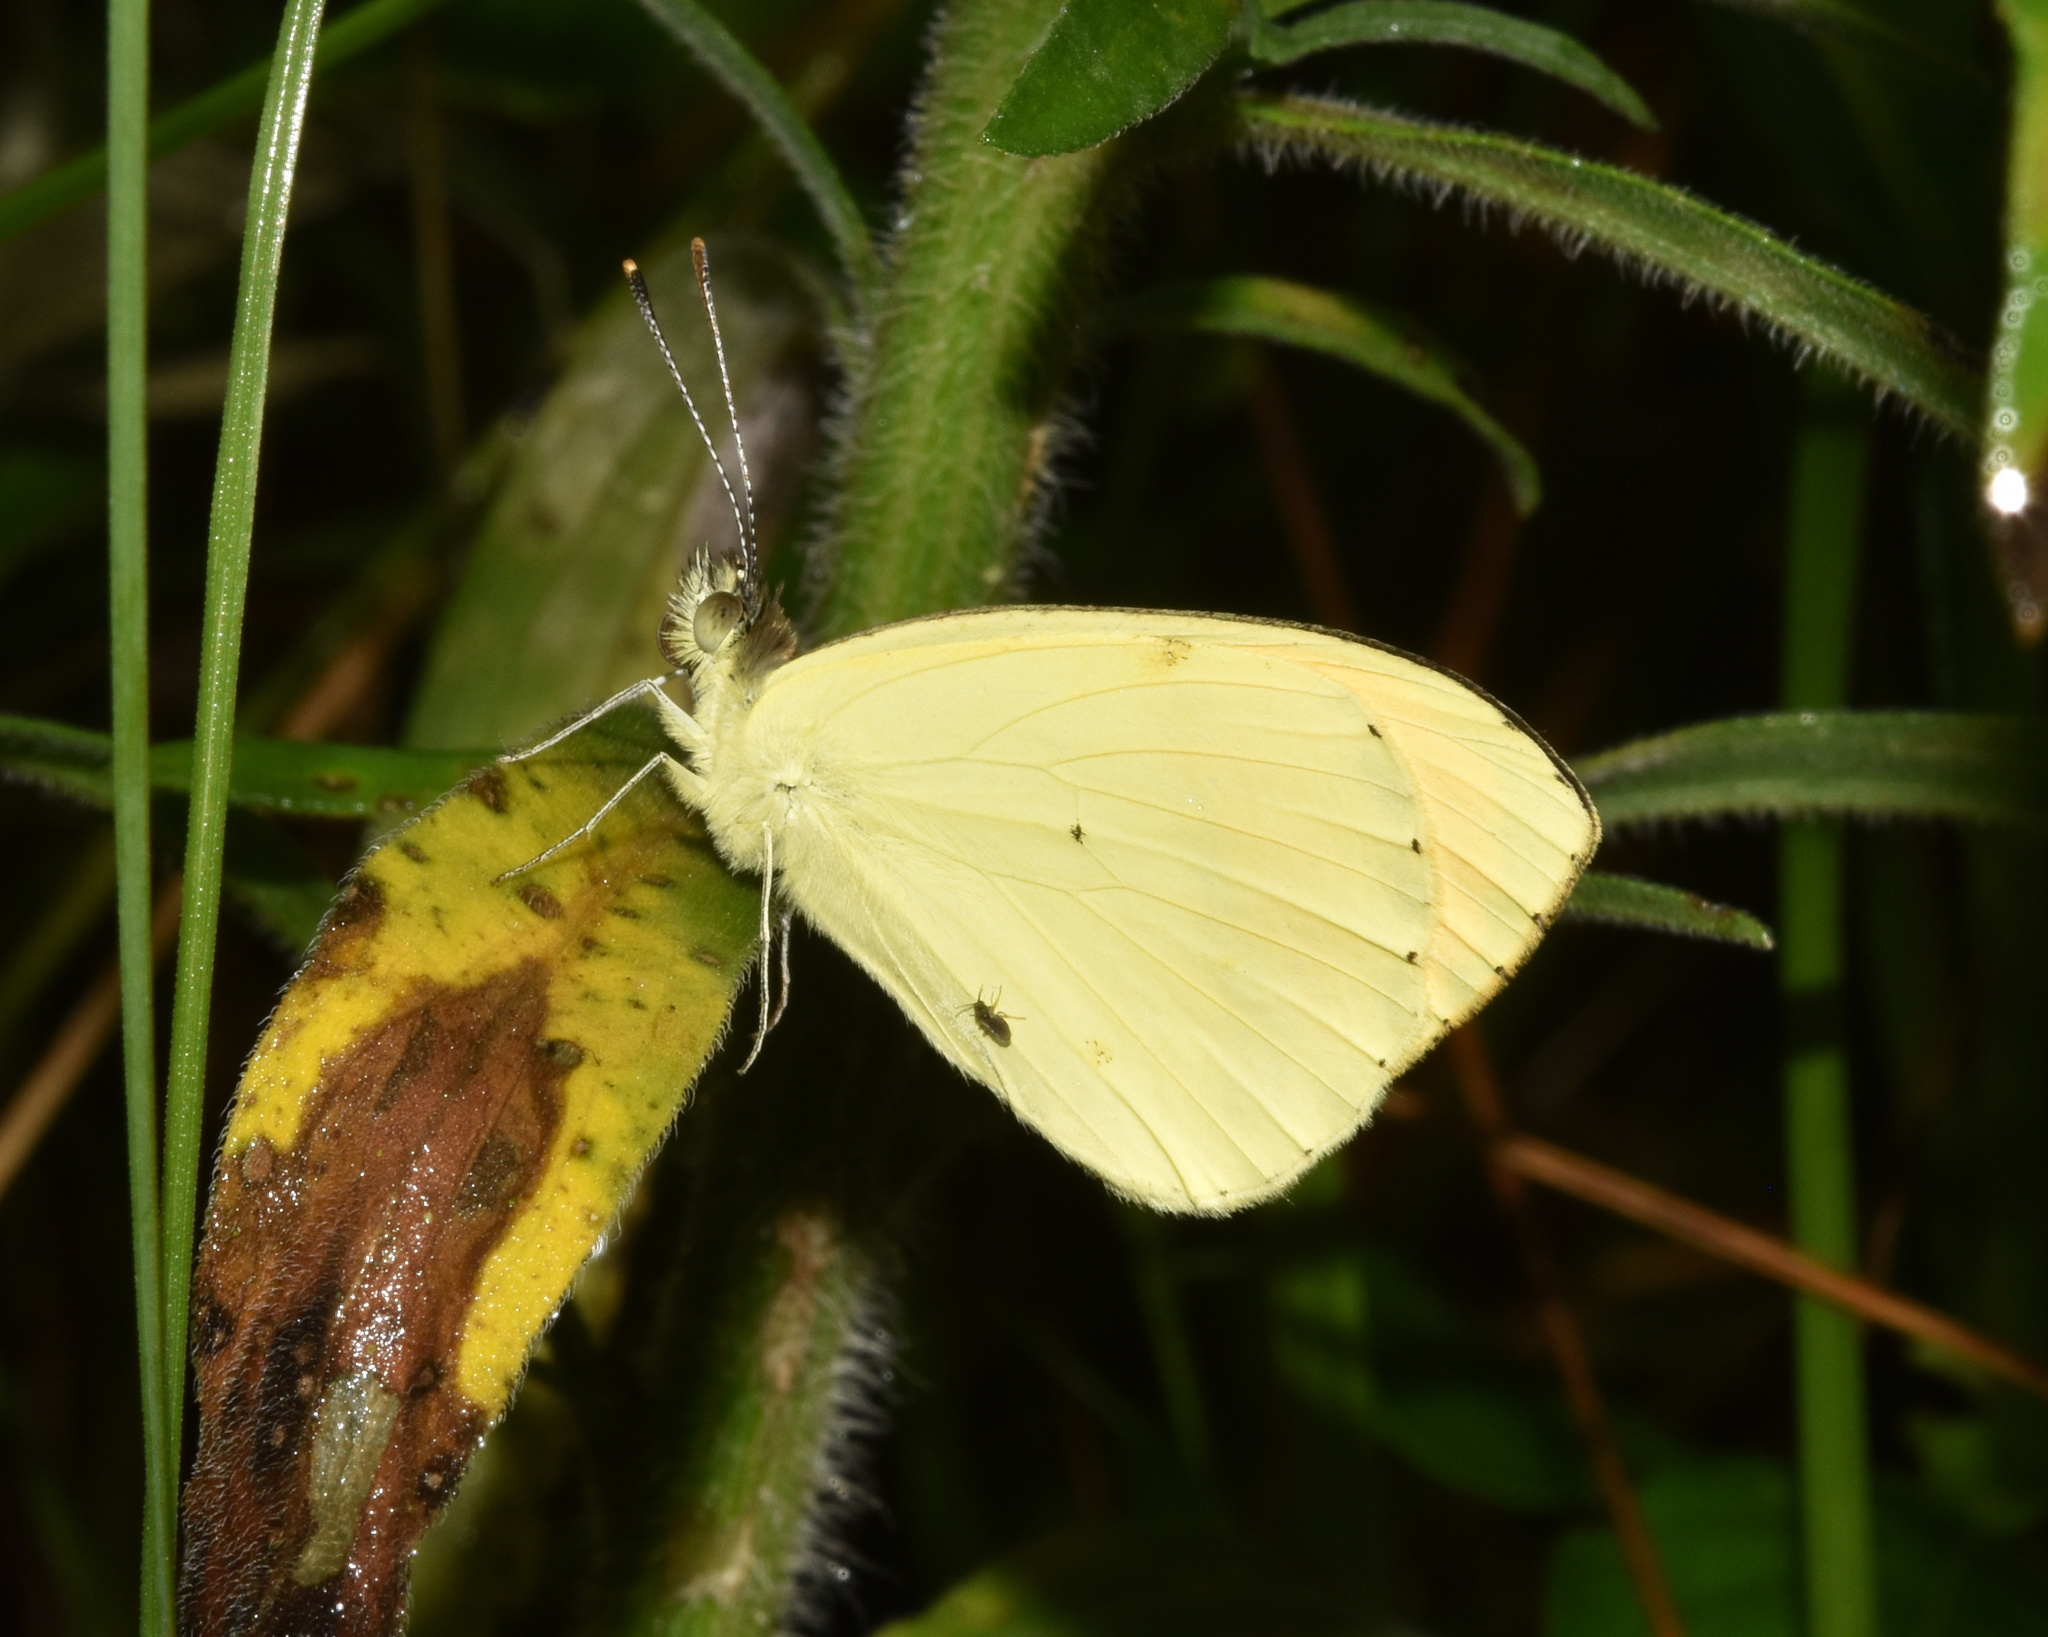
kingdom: Animalia
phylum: Arthropoda
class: Insecta
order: Lepidoptera
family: Pieridae
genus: Colotis
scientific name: Colotis auxo
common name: Sulphur orange tip
